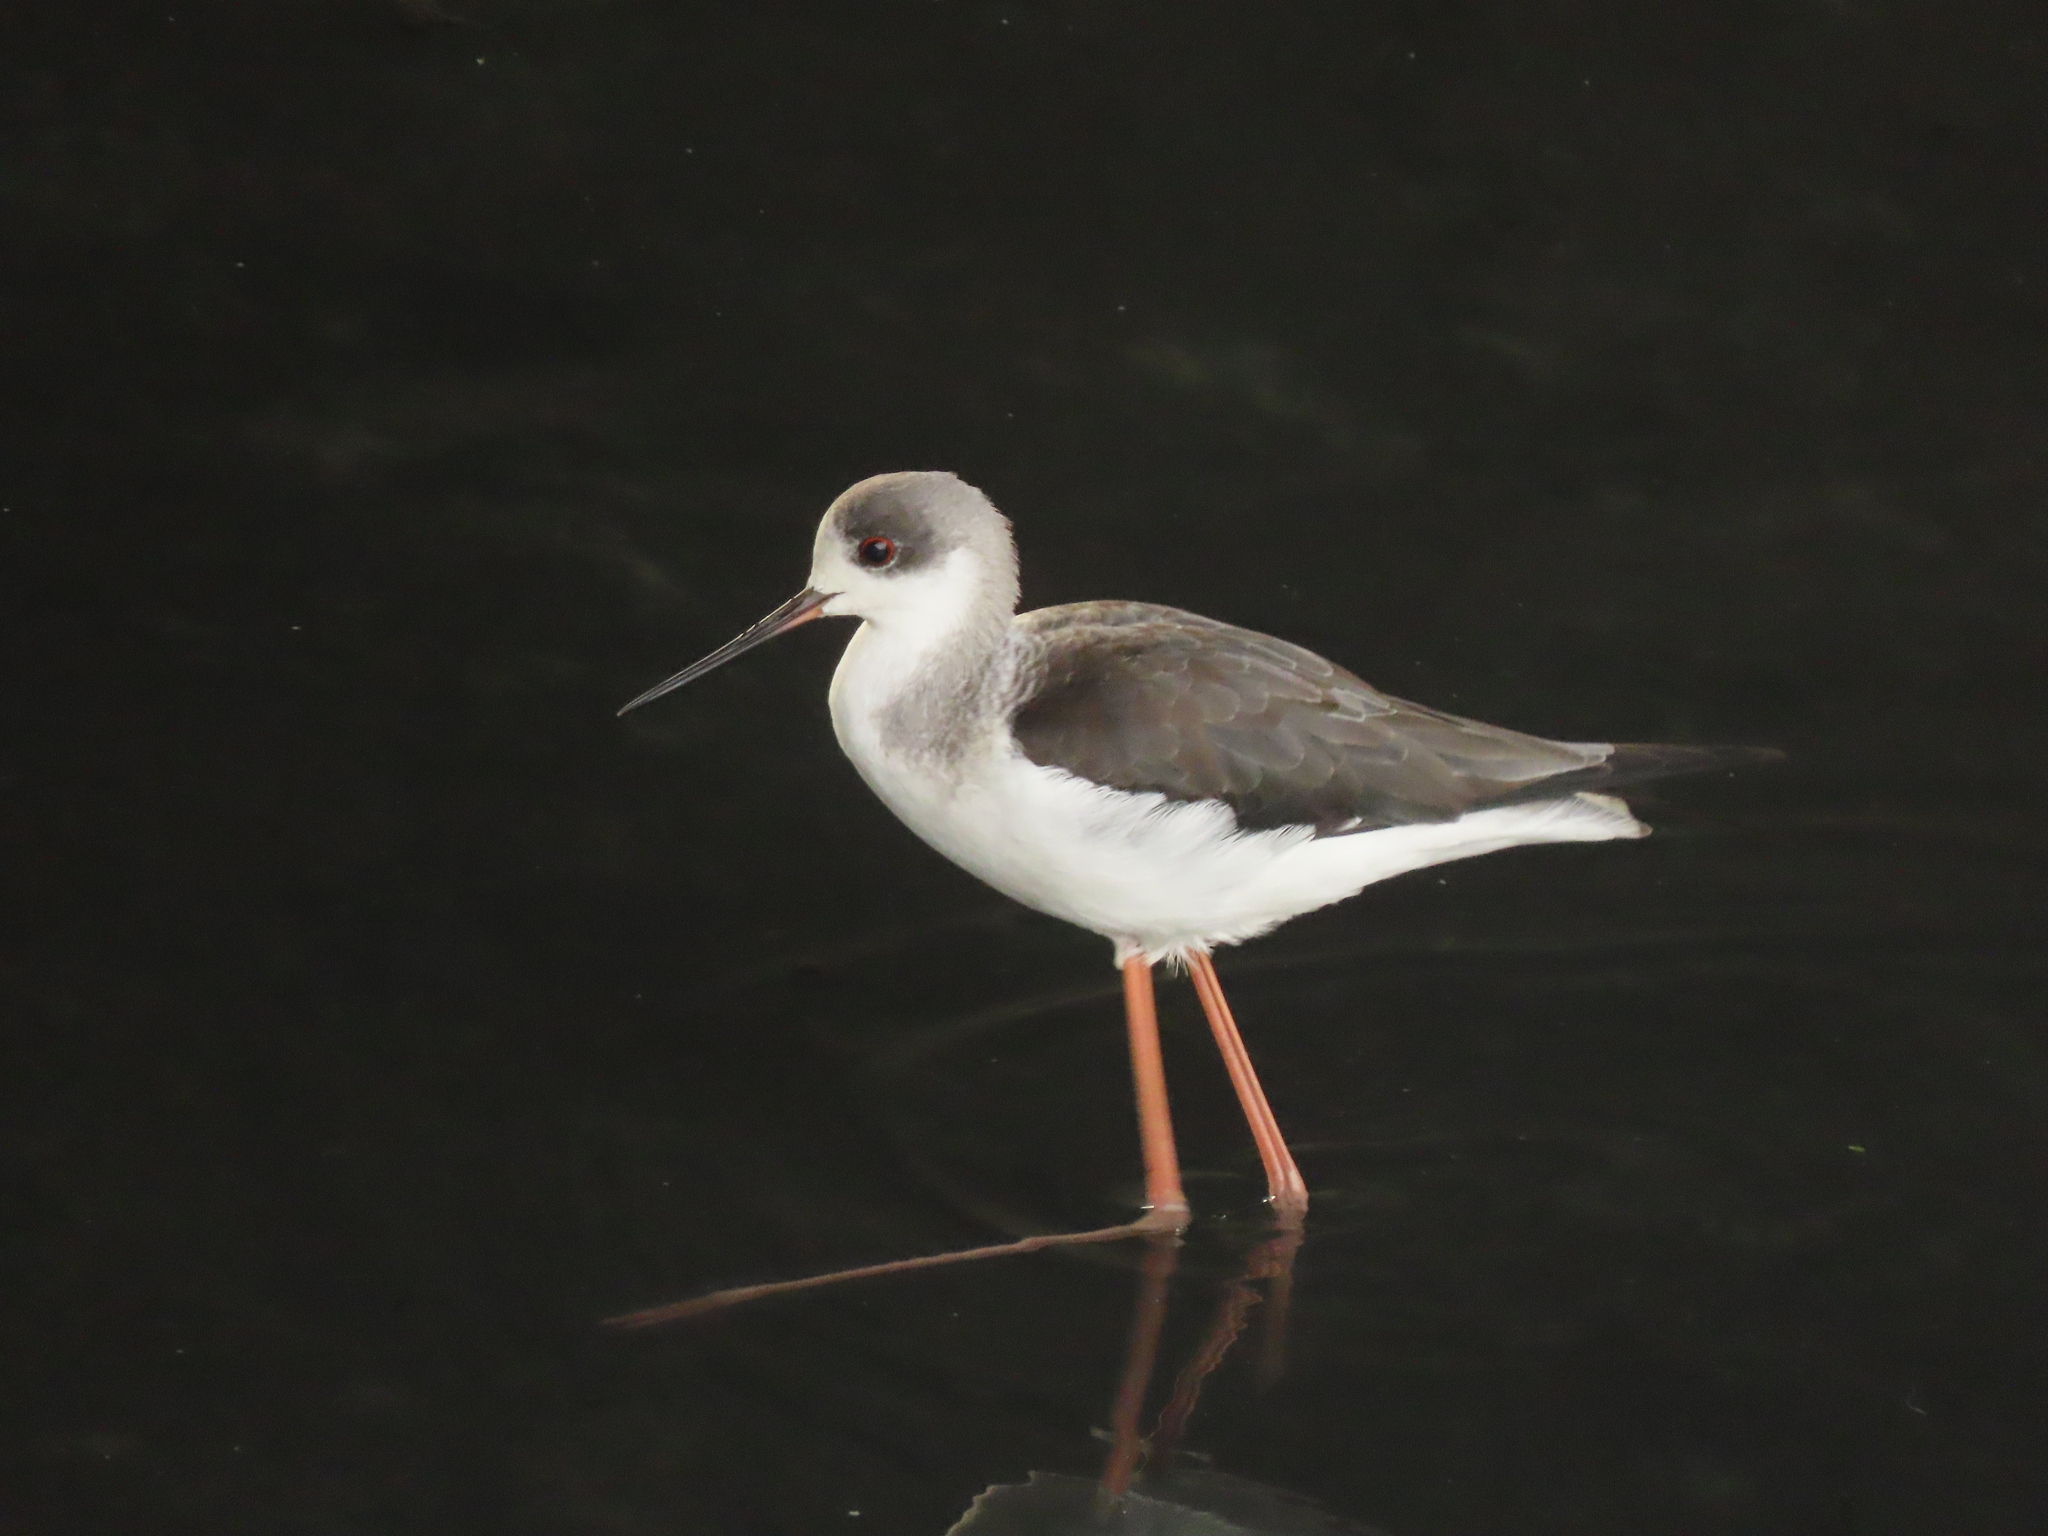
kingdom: Animalia
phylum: Chordata
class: Aves
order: Charadriiformes
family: Recurvirostridae
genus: Himantopus
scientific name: Himantopus himantopus
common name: Black-winged stilt
